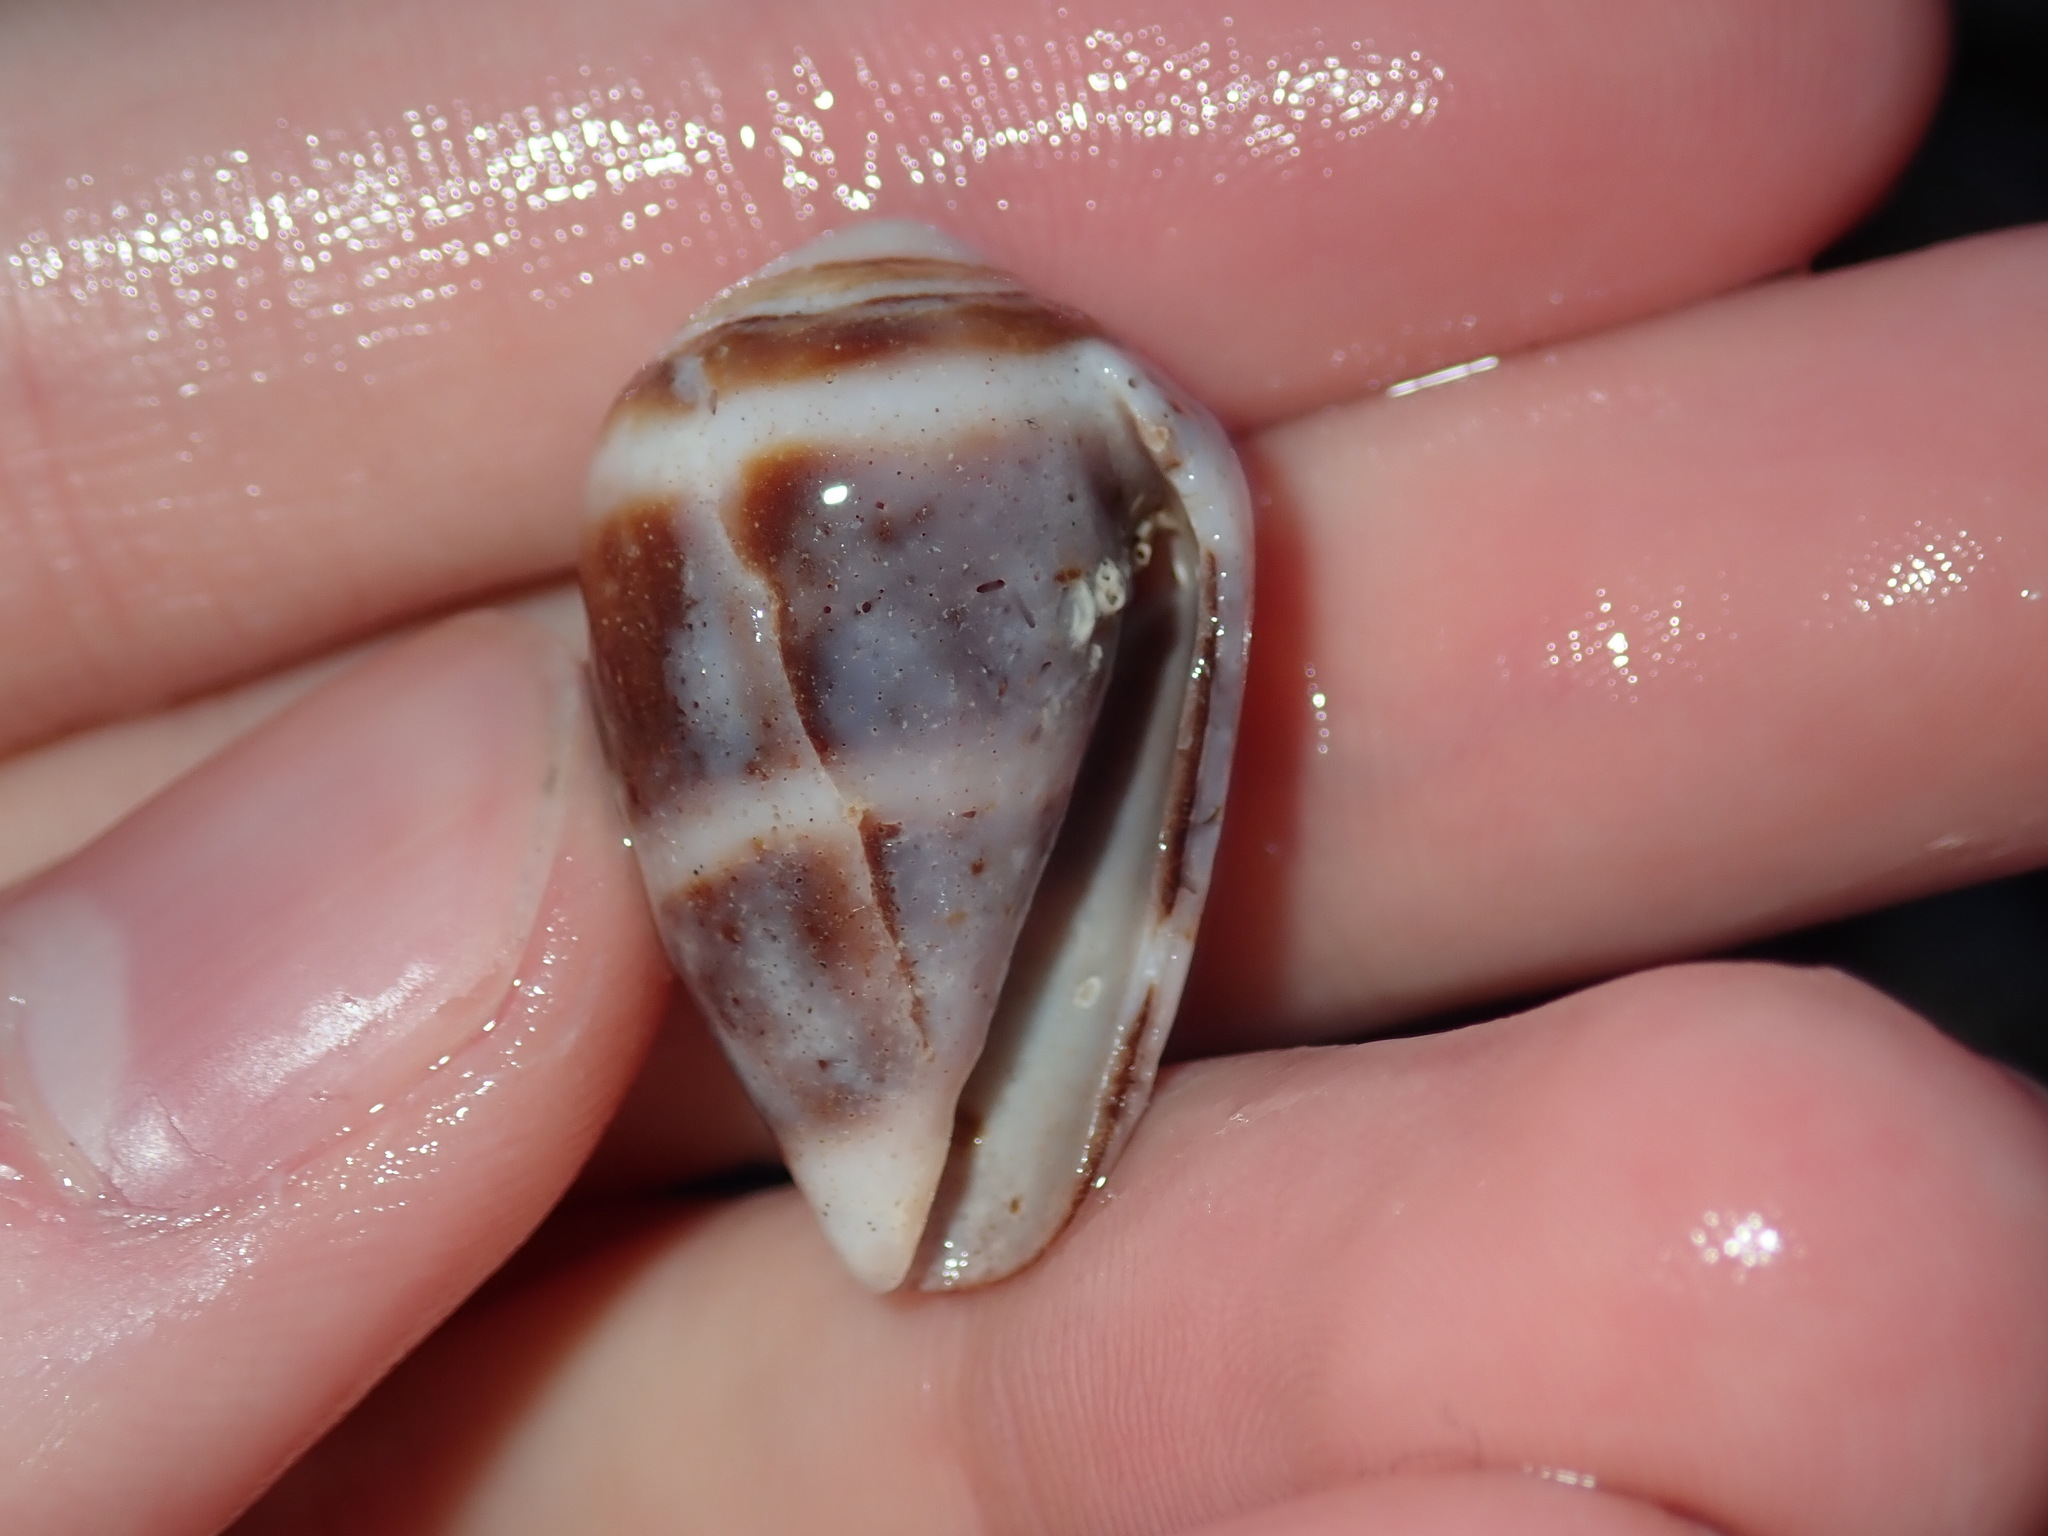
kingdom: Animalia
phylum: Mollusca
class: Gastropoda
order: Neogastropoda
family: Conidae
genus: Conus
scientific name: Conus coronatus
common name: Coronated cone
